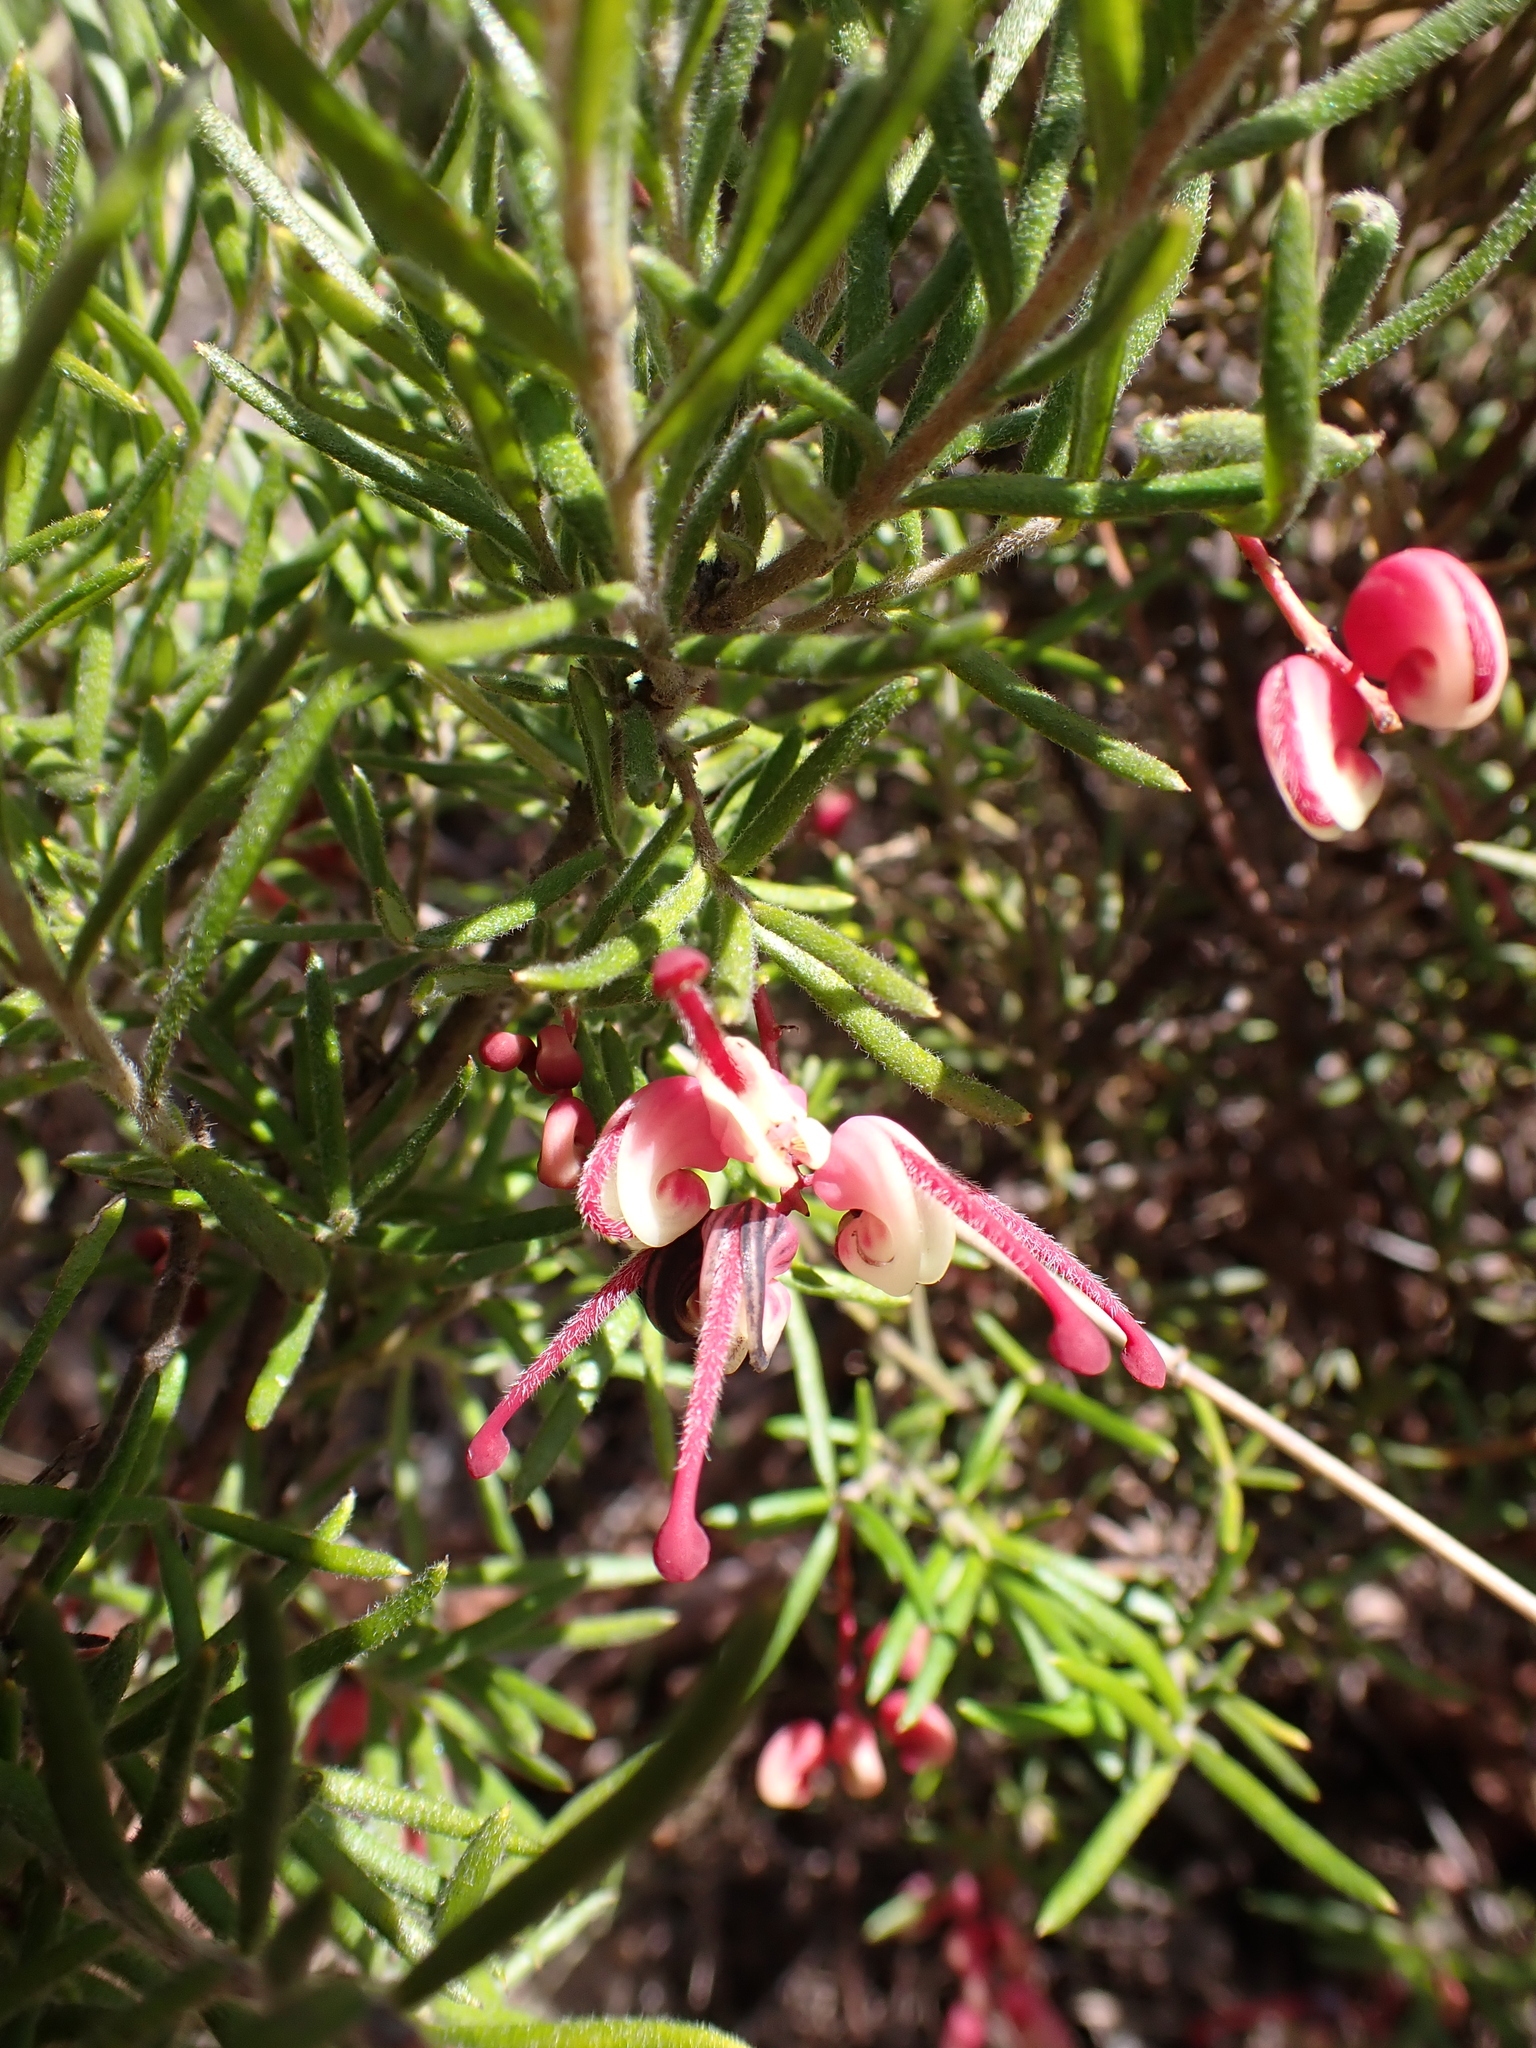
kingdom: Plantae
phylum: Tracheophyta
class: Magnoliopsida
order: Proteales
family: Proteaceae
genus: Grevillea
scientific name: Grevillea rosmarinifolia
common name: Rosemary grevillea
